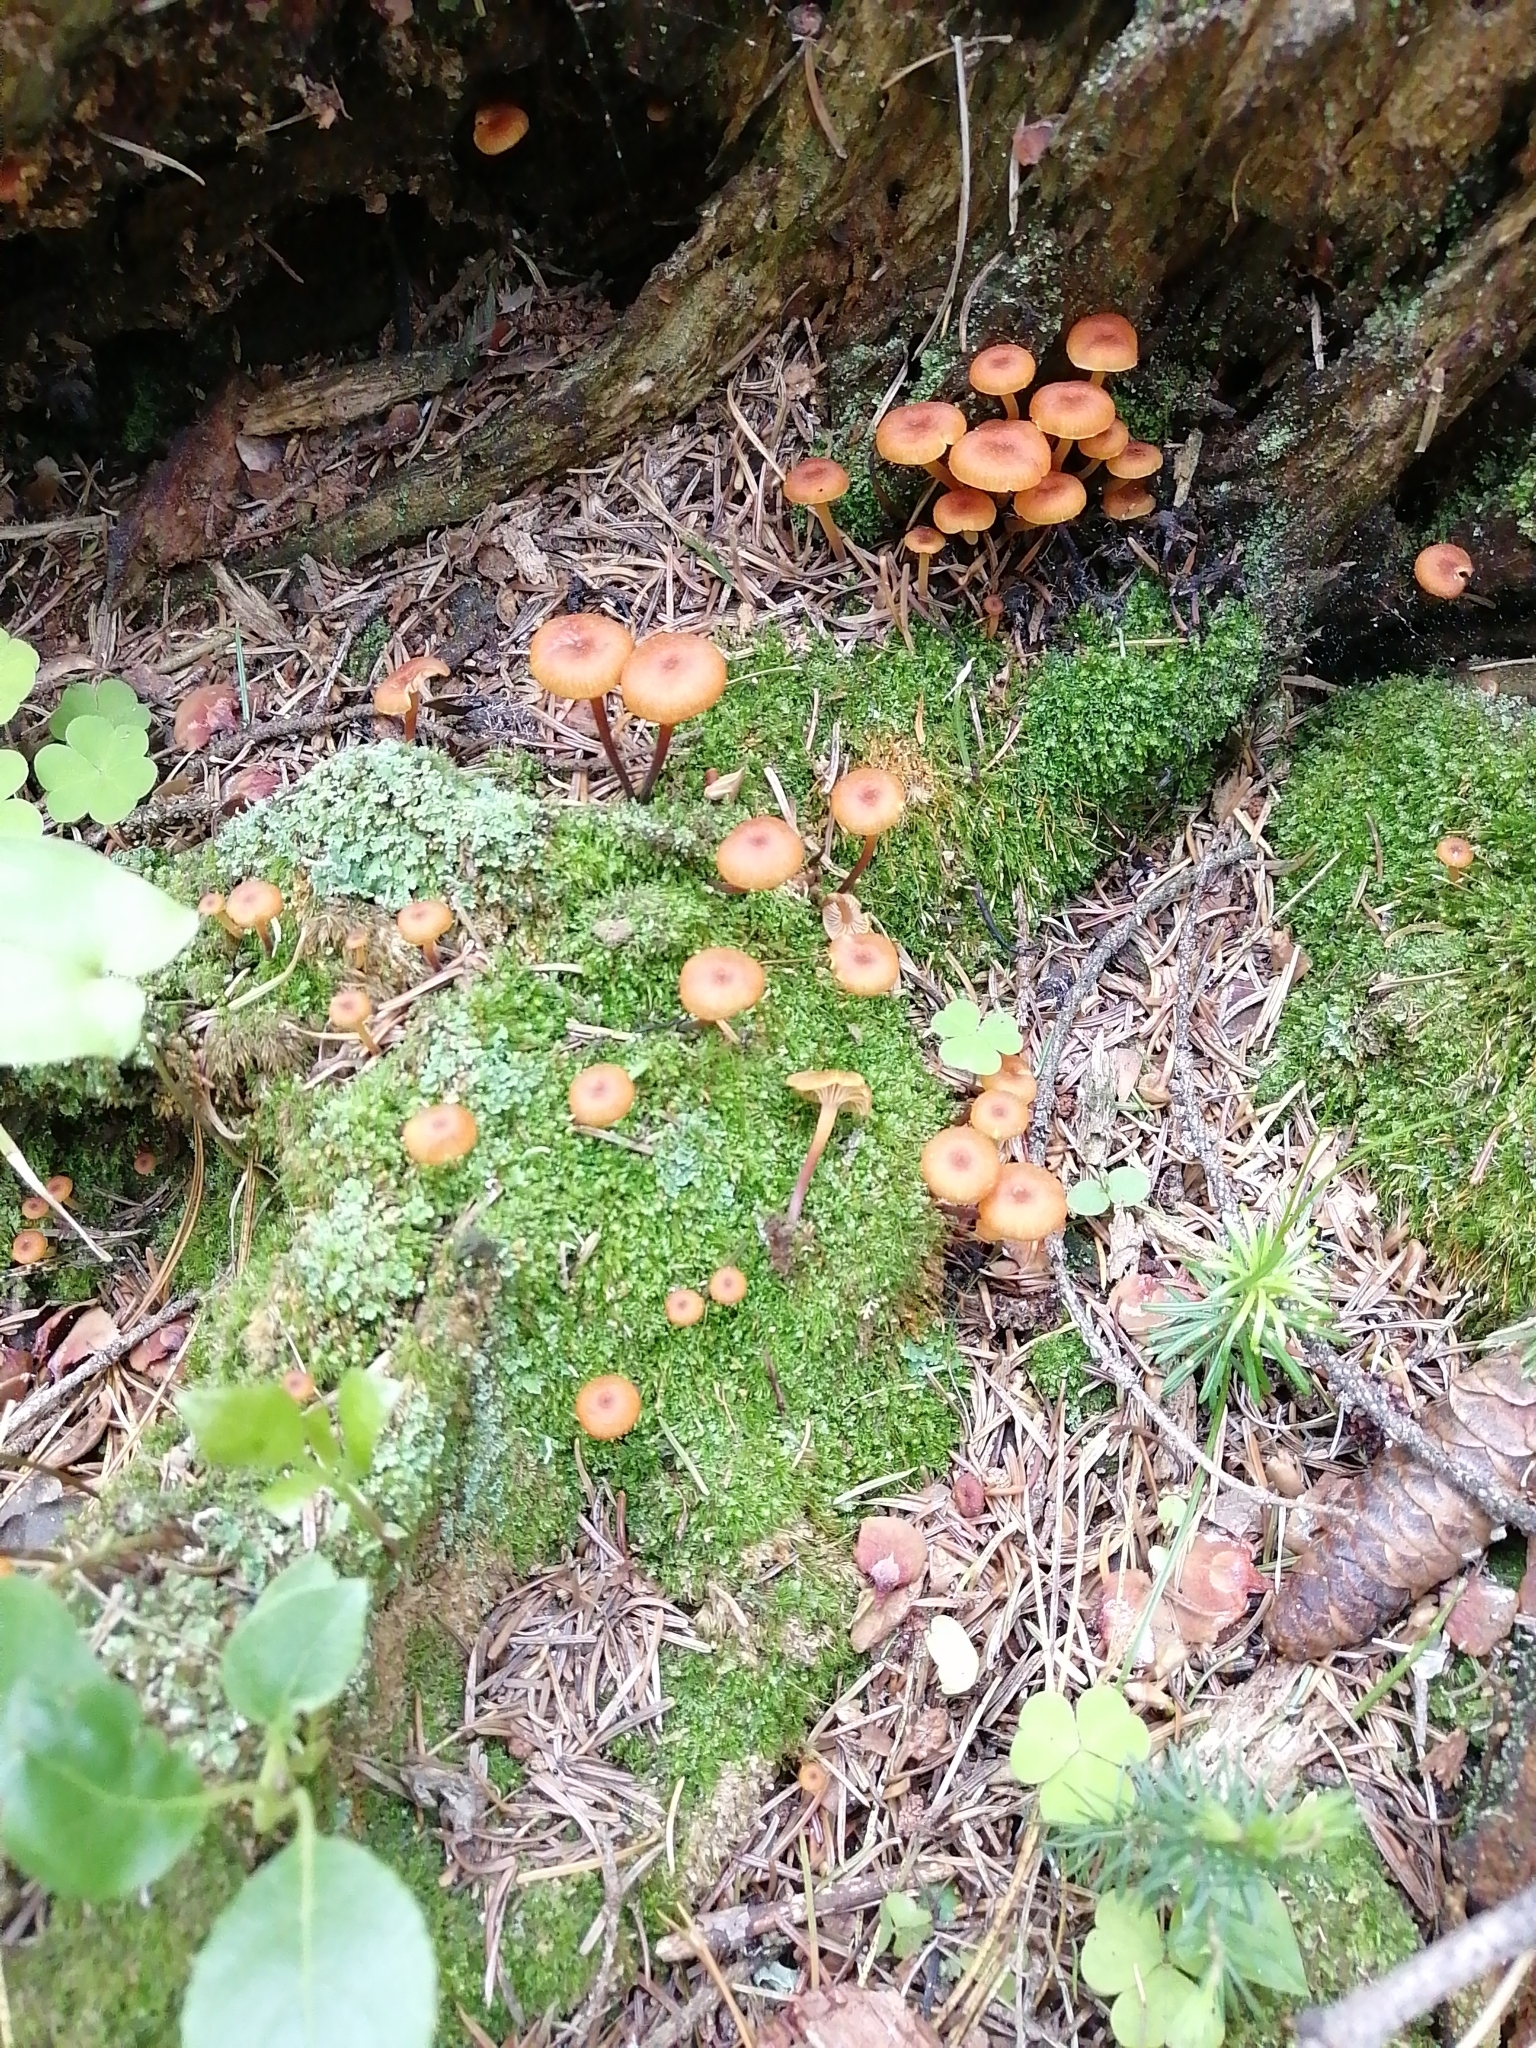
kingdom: Fungi
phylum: Basidiomycota
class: Agaricomycetes
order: Agaricales
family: Mycenaceae
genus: Xeromphalina
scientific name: Xeromphalina campanella
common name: Pinewood gingertail
